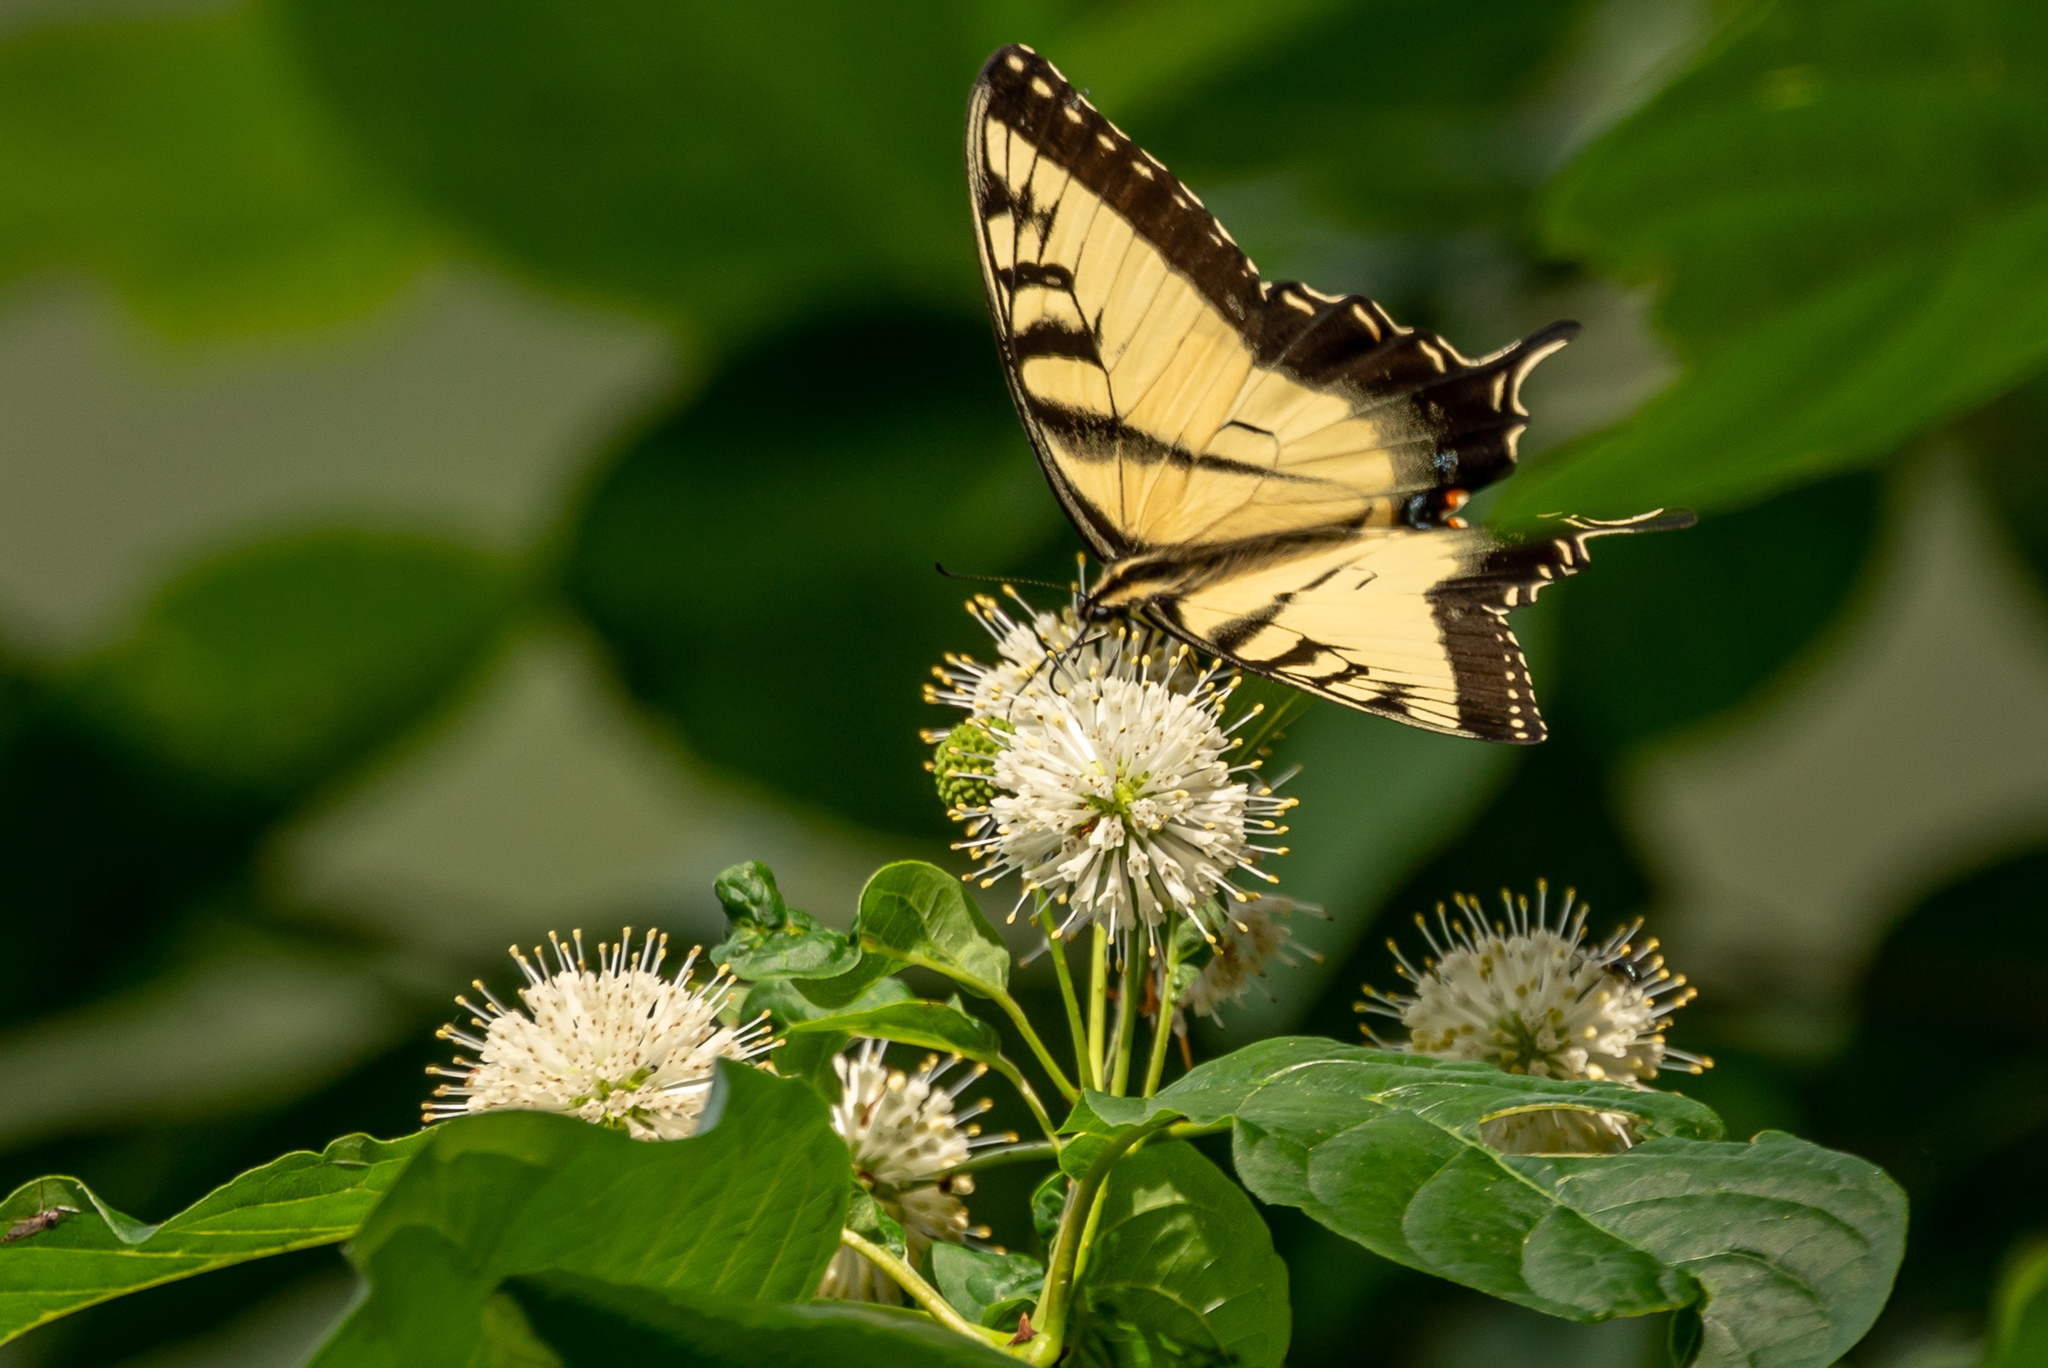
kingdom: Animalia
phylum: Arthropoda
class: Insecta
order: Lepidoptera
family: Papilionidae
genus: Papilio
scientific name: Papilio glaucus
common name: Tiger swallowtail
